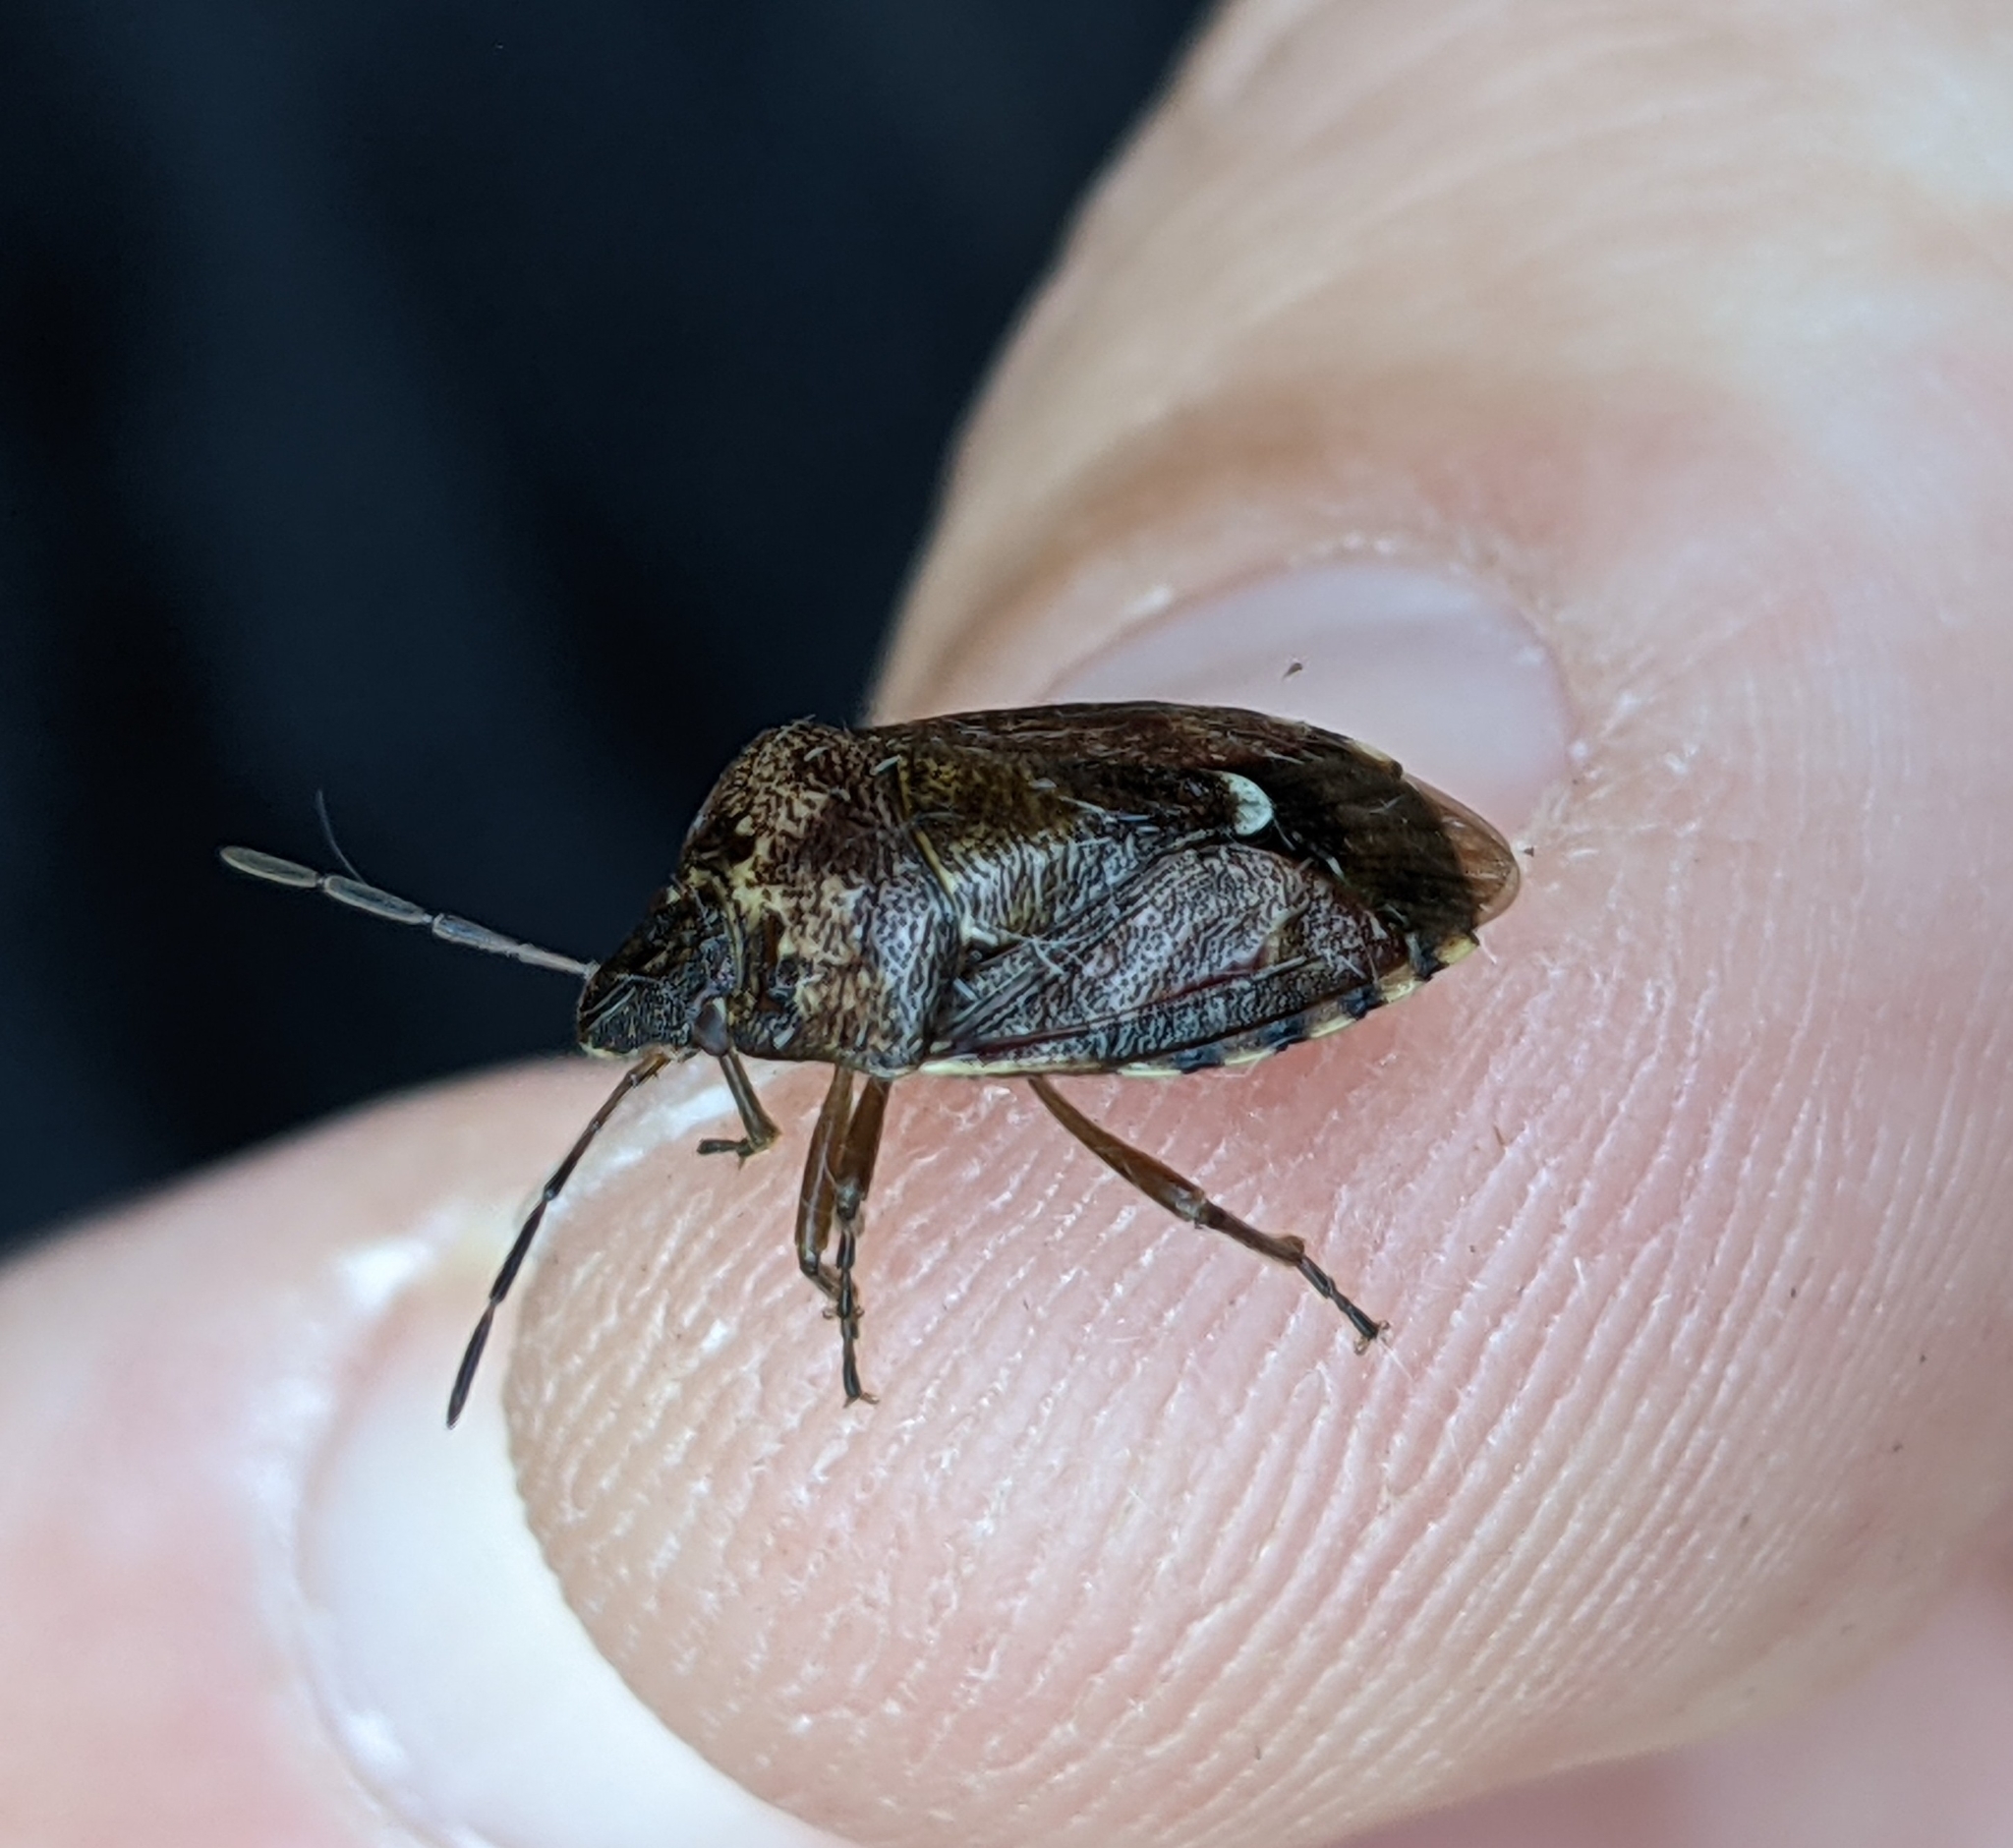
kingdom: Animalia
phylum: Arthropoda
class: Insecta
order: Hemiptera
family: Pentatomidae
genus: Banasa
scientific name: Banasa sordida
